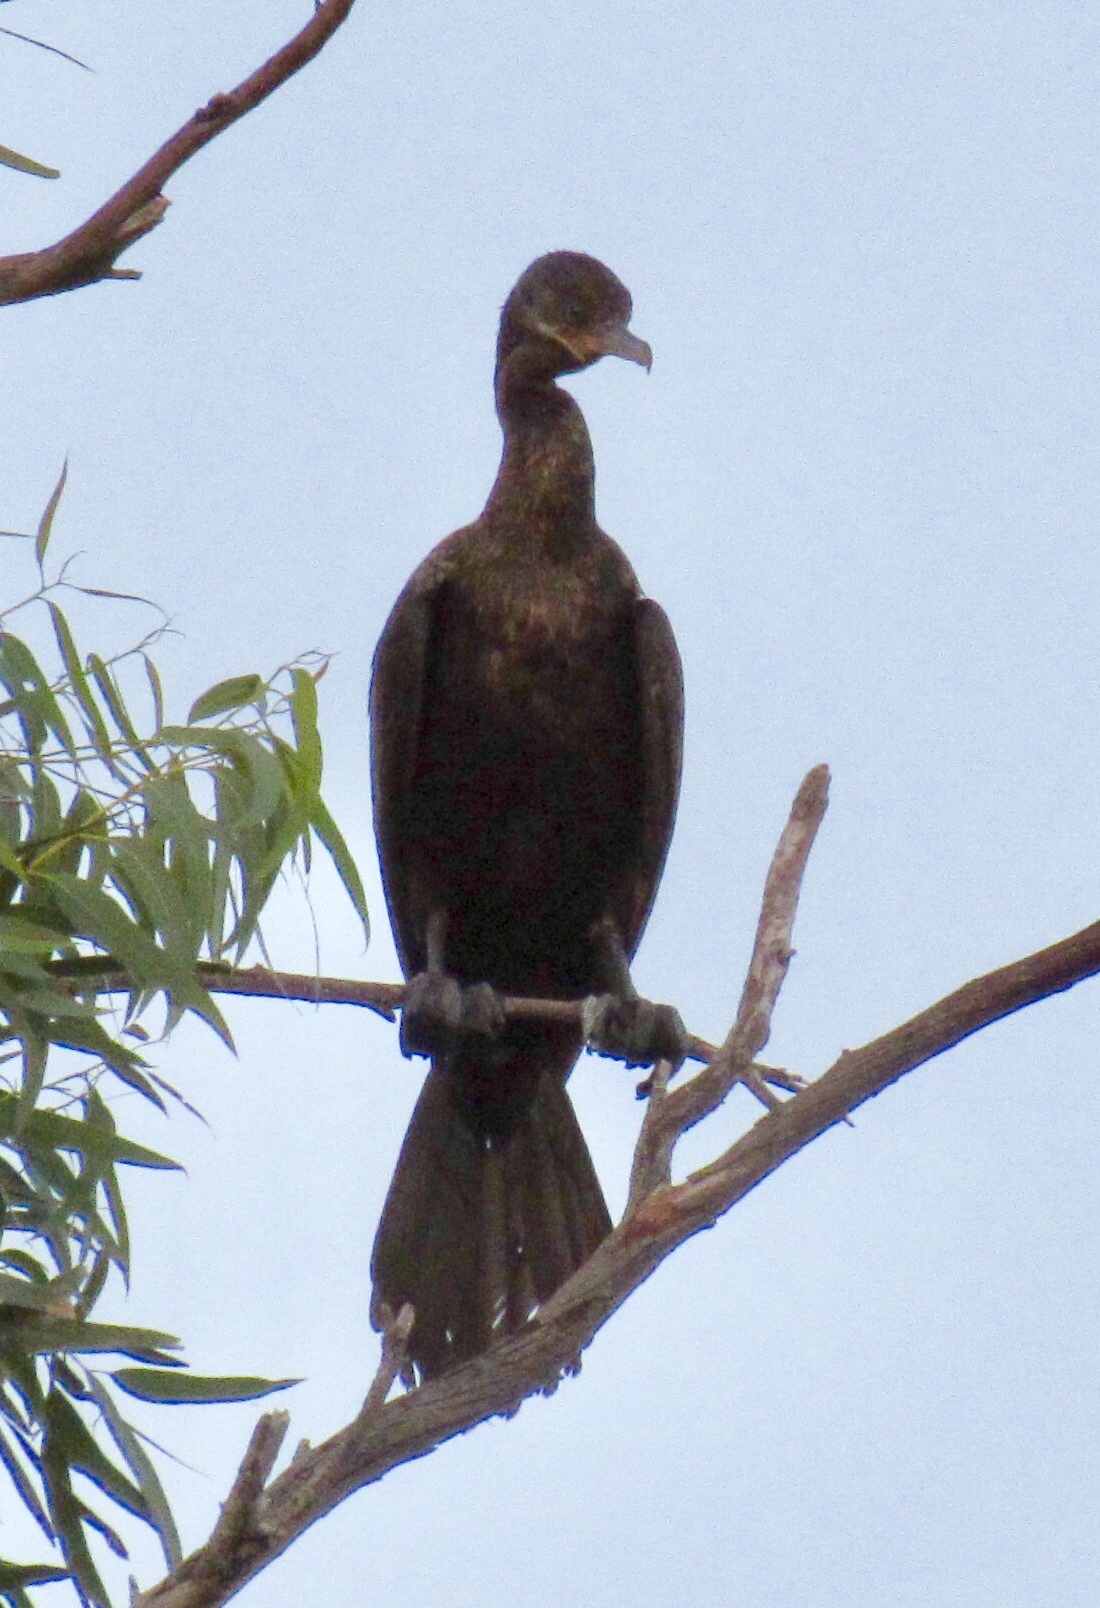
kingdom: Animalia
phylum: Chordata
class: Aves
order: Suliformes
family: Phalacrocoracidae
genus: Phalacrocorax
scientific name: Phalacrocorax brasilianus
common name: Neotropic cormorant
